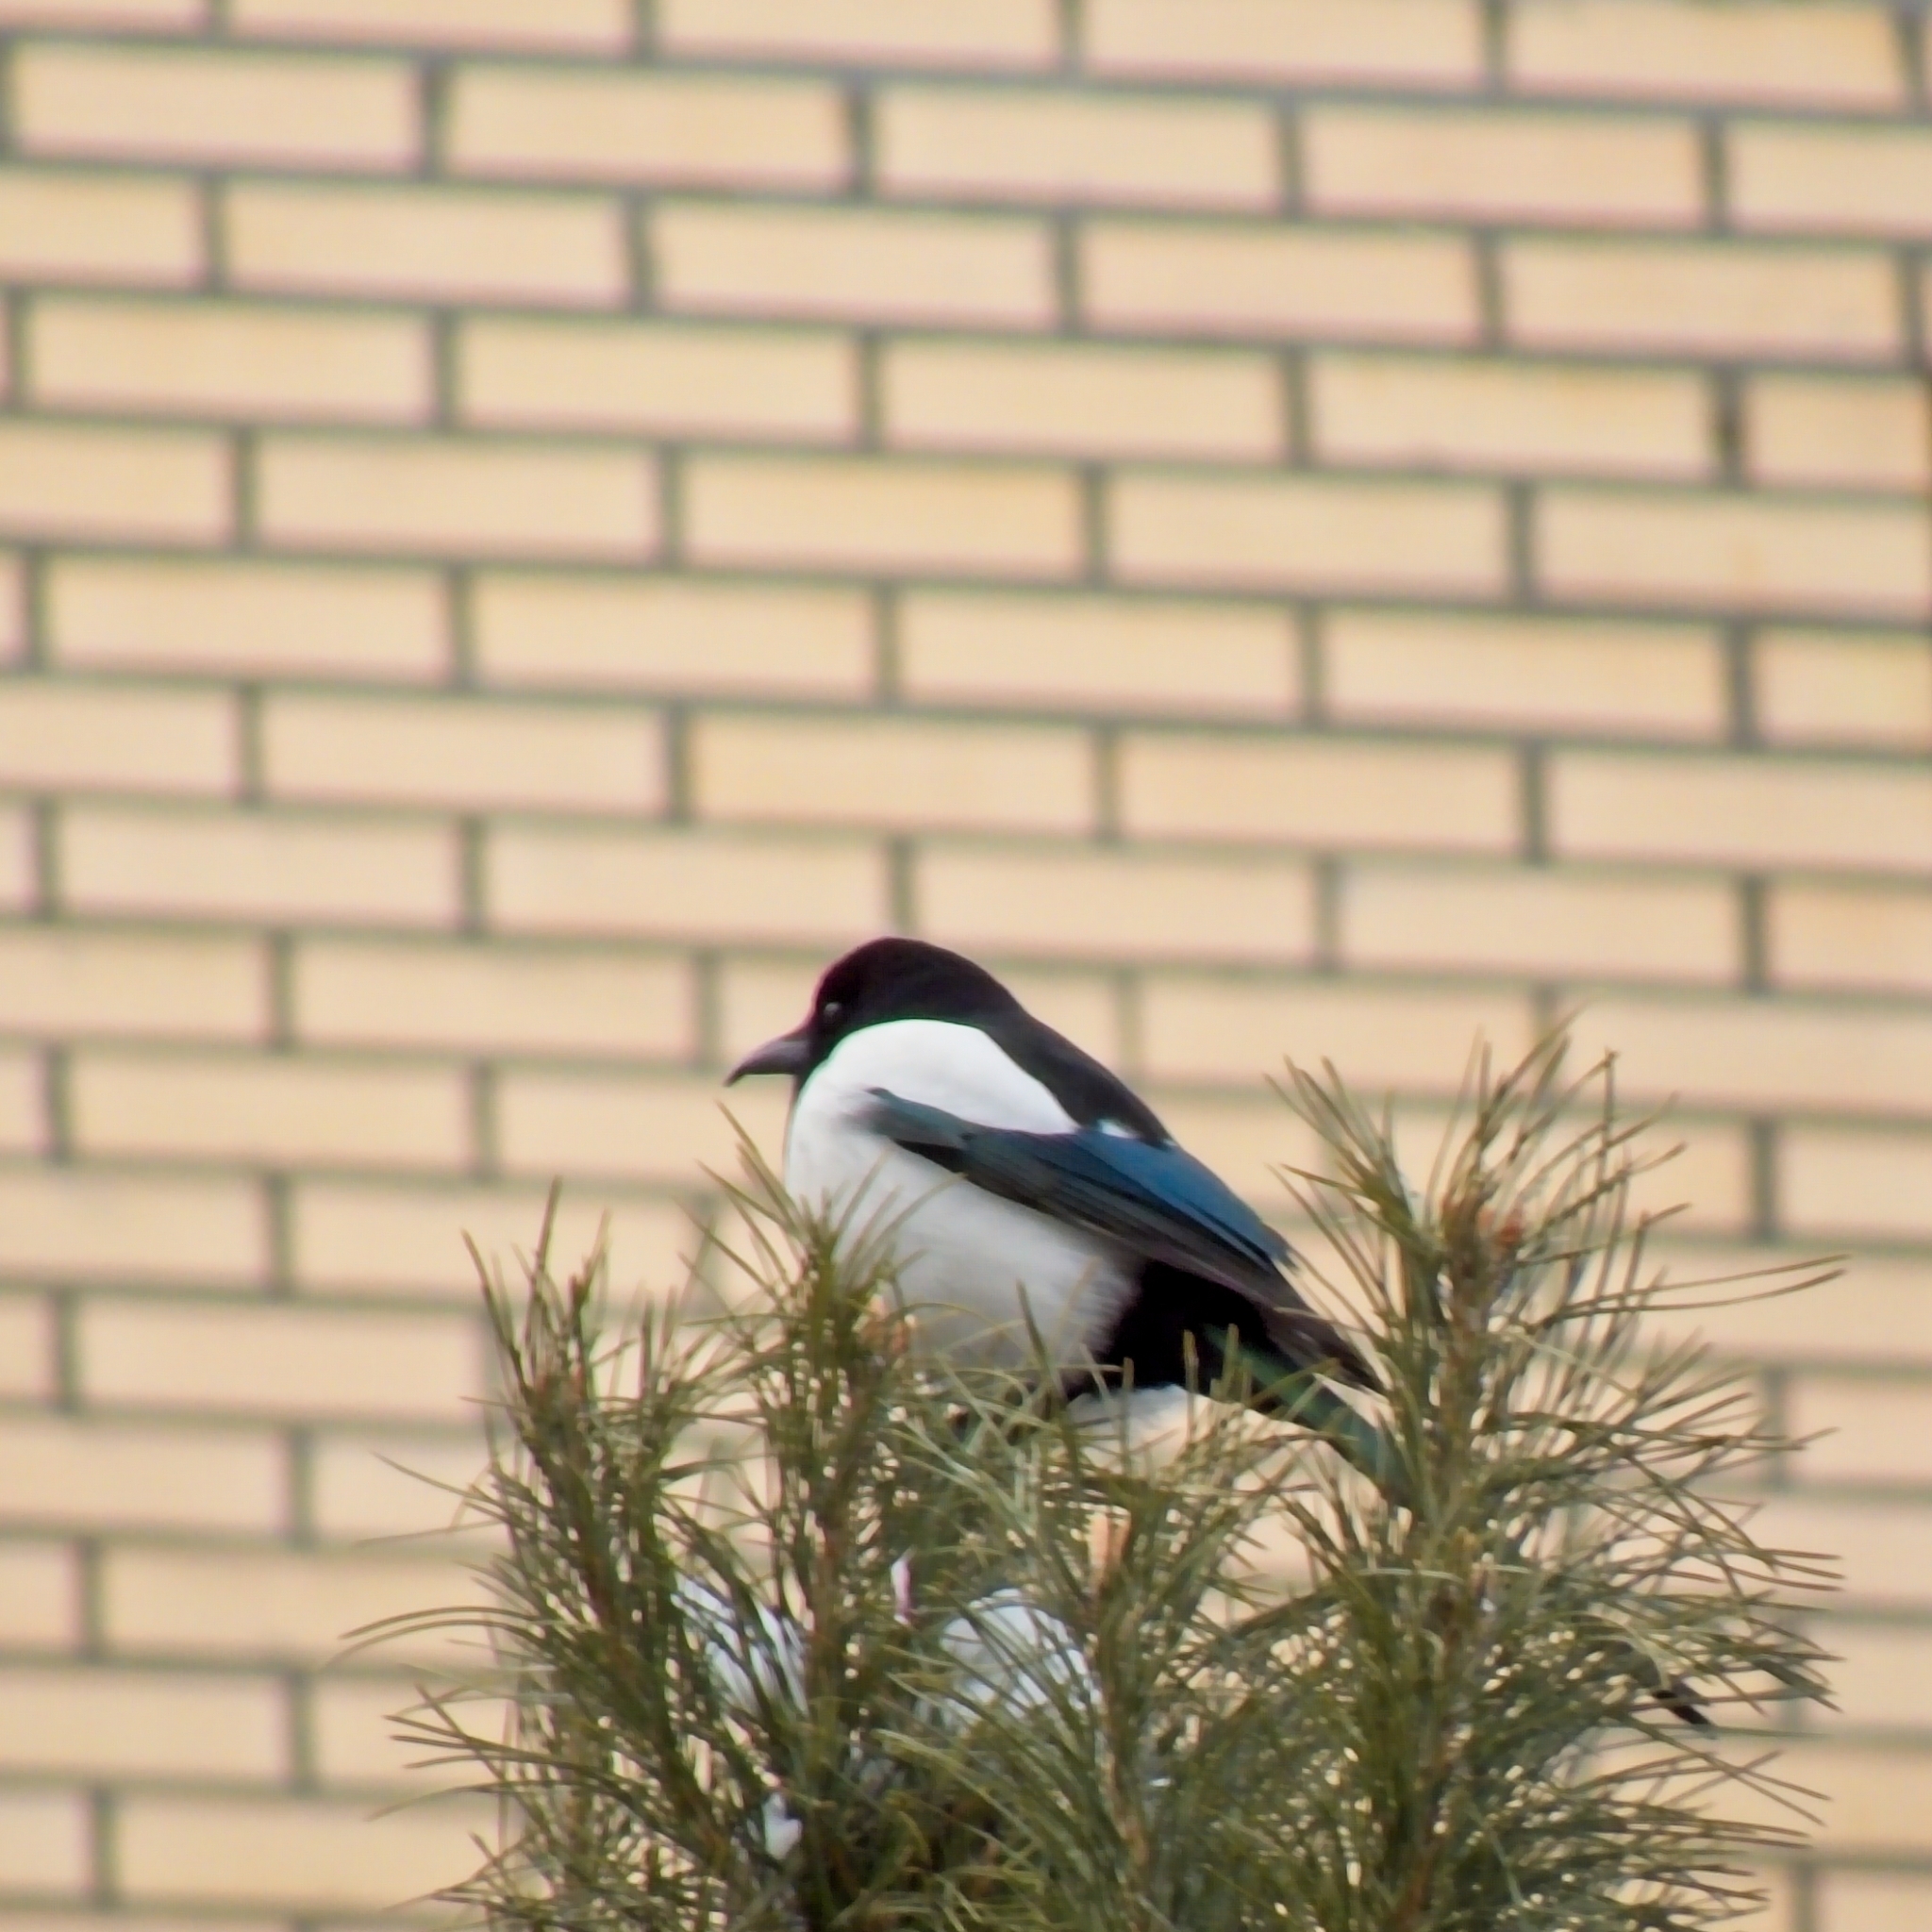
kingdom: Animalia
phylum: Chordata
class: Aves
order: Passeriformes
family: Corvidae
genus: Pica
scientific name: Pica pica
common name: Eurasian magpie
